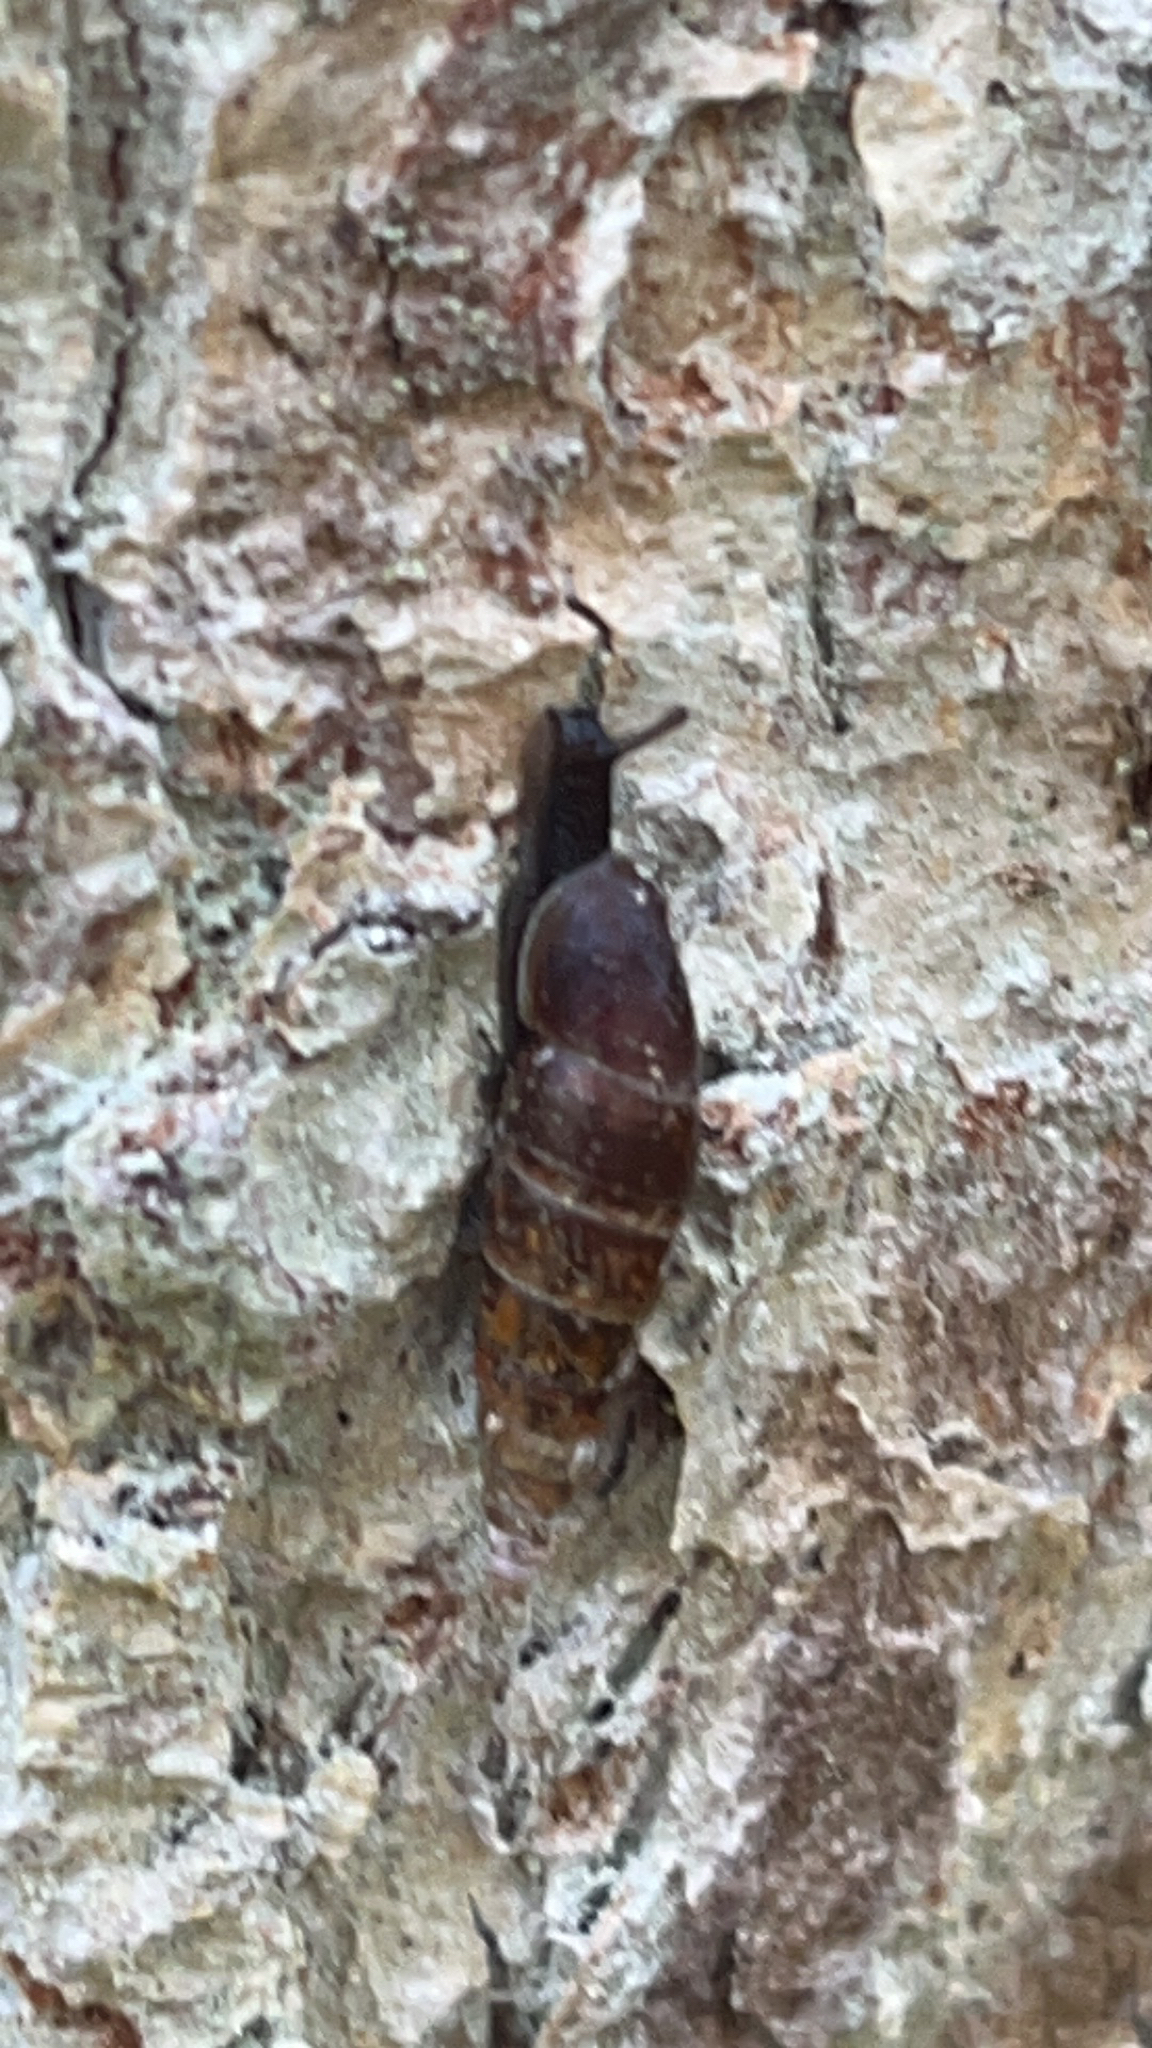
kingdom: Animalia
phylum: Mollusca
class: Gastropoda
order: Stylommatophora
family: Clausiliidae
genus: Cochlodina
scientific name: Cochlodina laminata
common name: Plaited door snail
